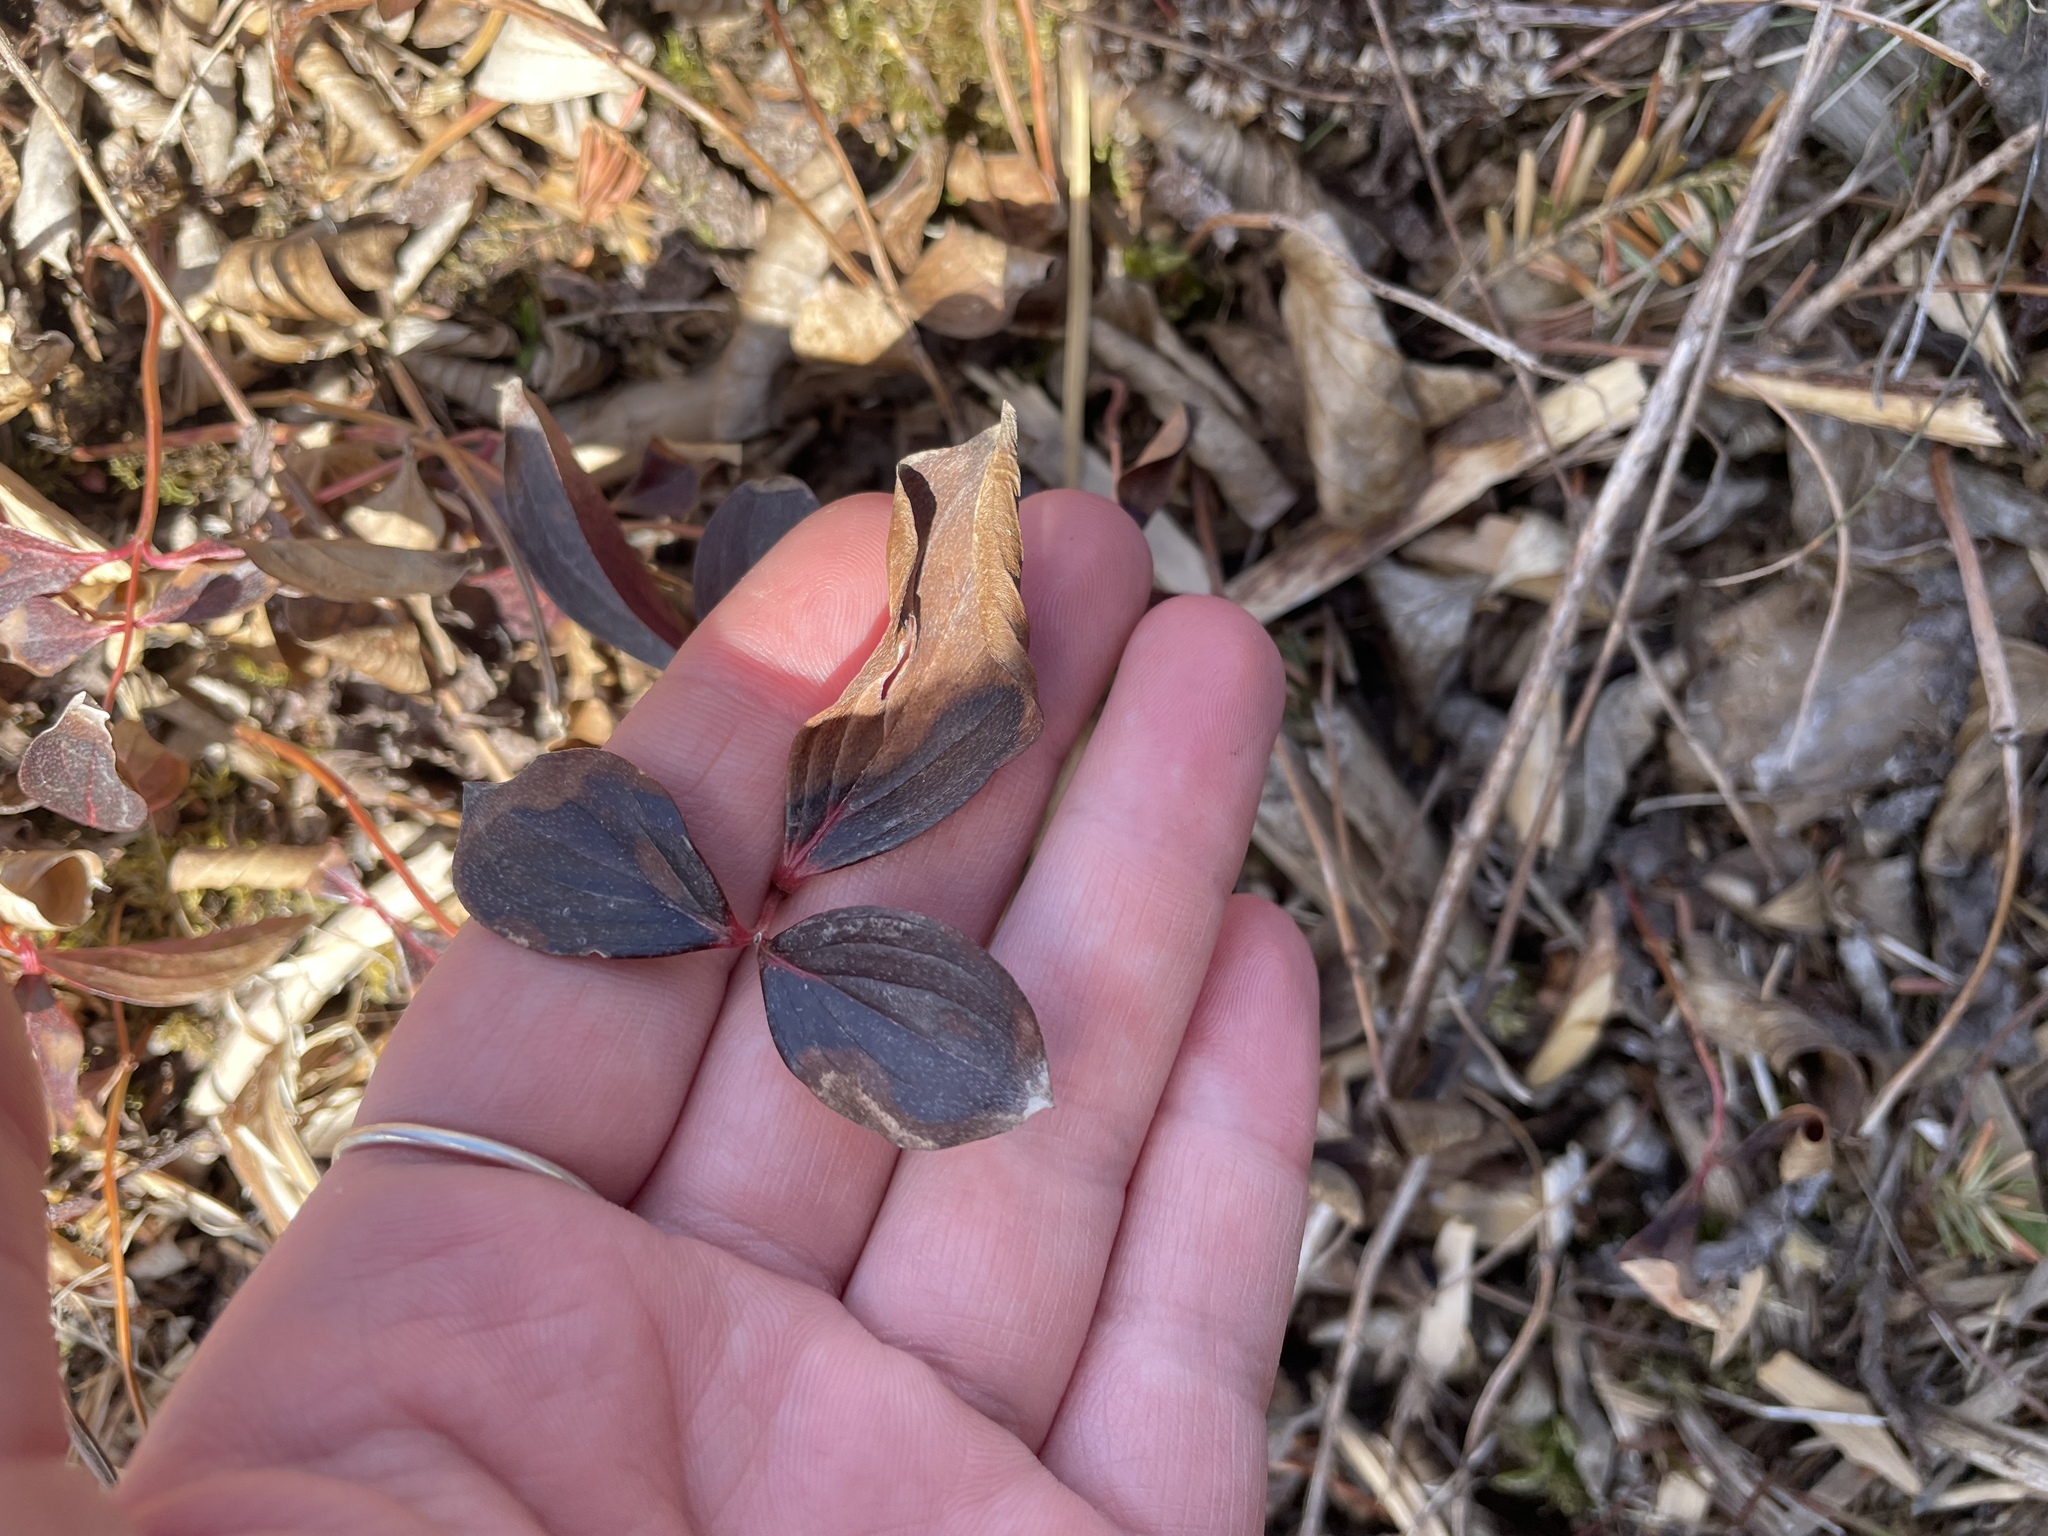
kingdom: Plantae
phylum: Tracheophyta
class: Magnoliopsida
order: Cornales
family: Cornaceae
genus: Cornus
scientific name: Cornus canadensis
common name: Creeping dogwood
